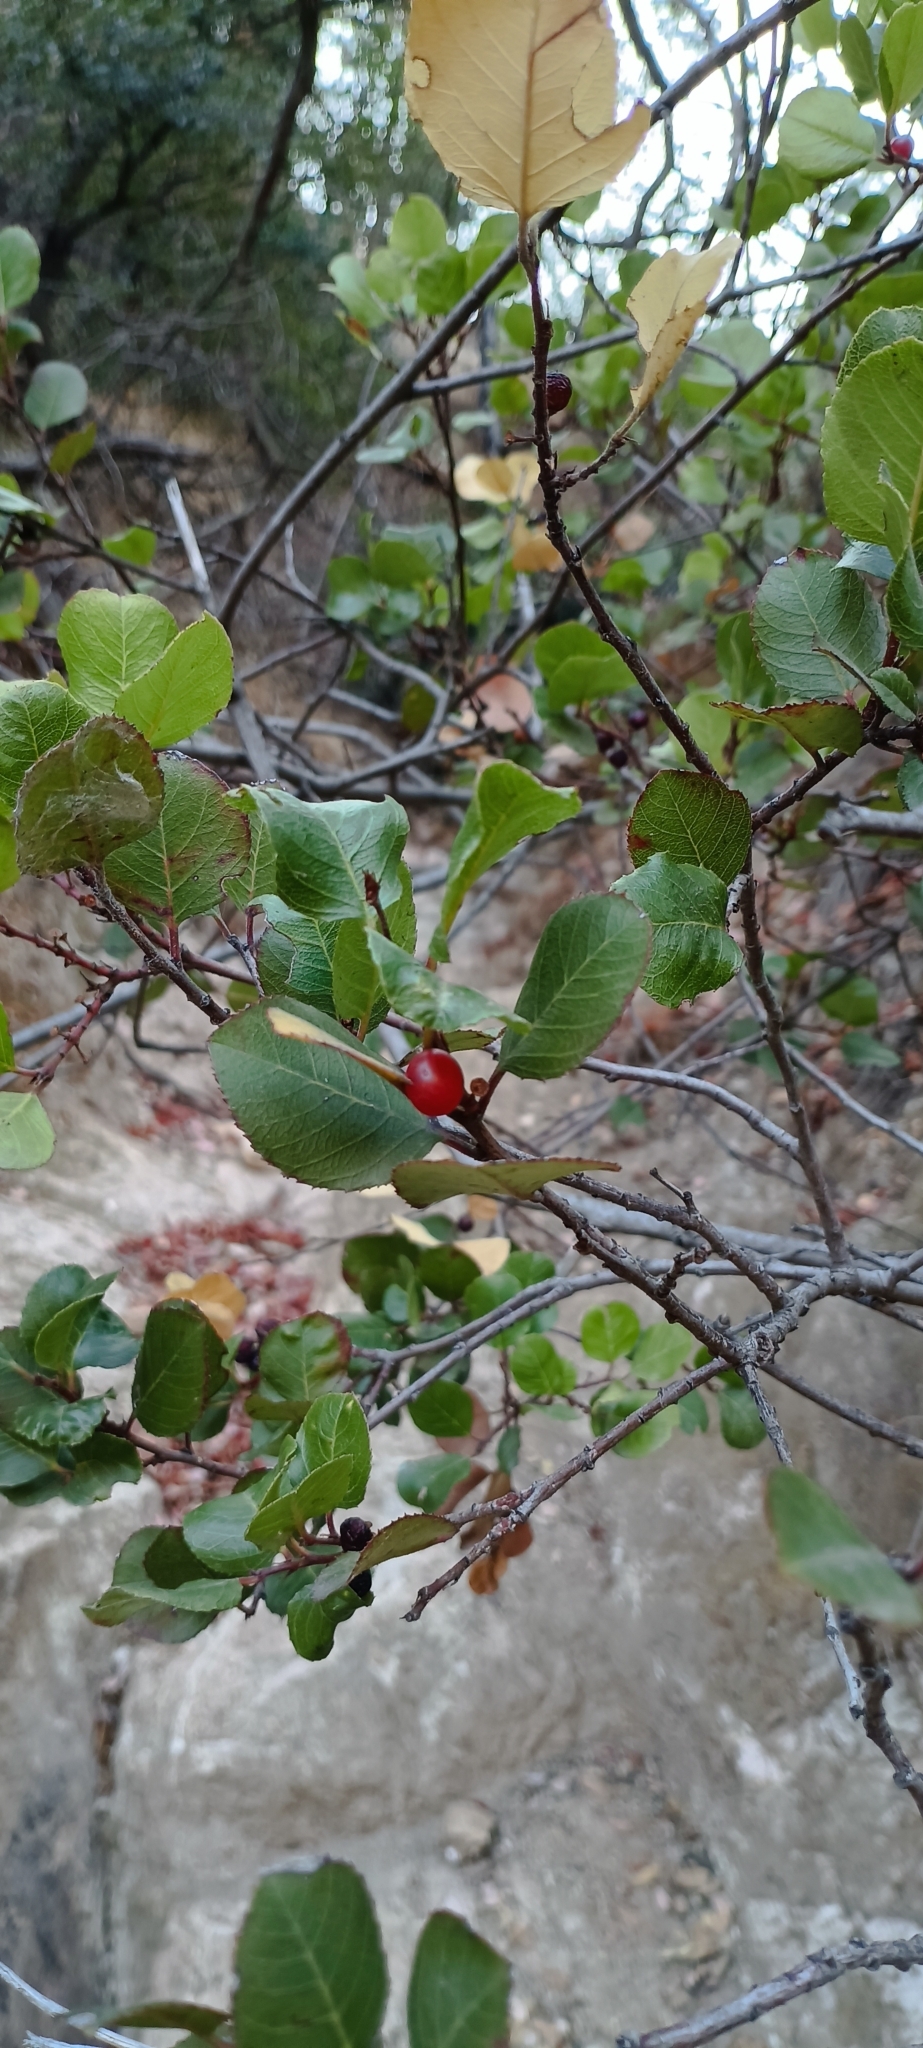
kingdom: Plantae
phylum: Tracheophyta
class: Magnoliopsida
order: Rosales
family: Rhamnaceae
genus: Endotropis
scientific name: Endotropis crocea
